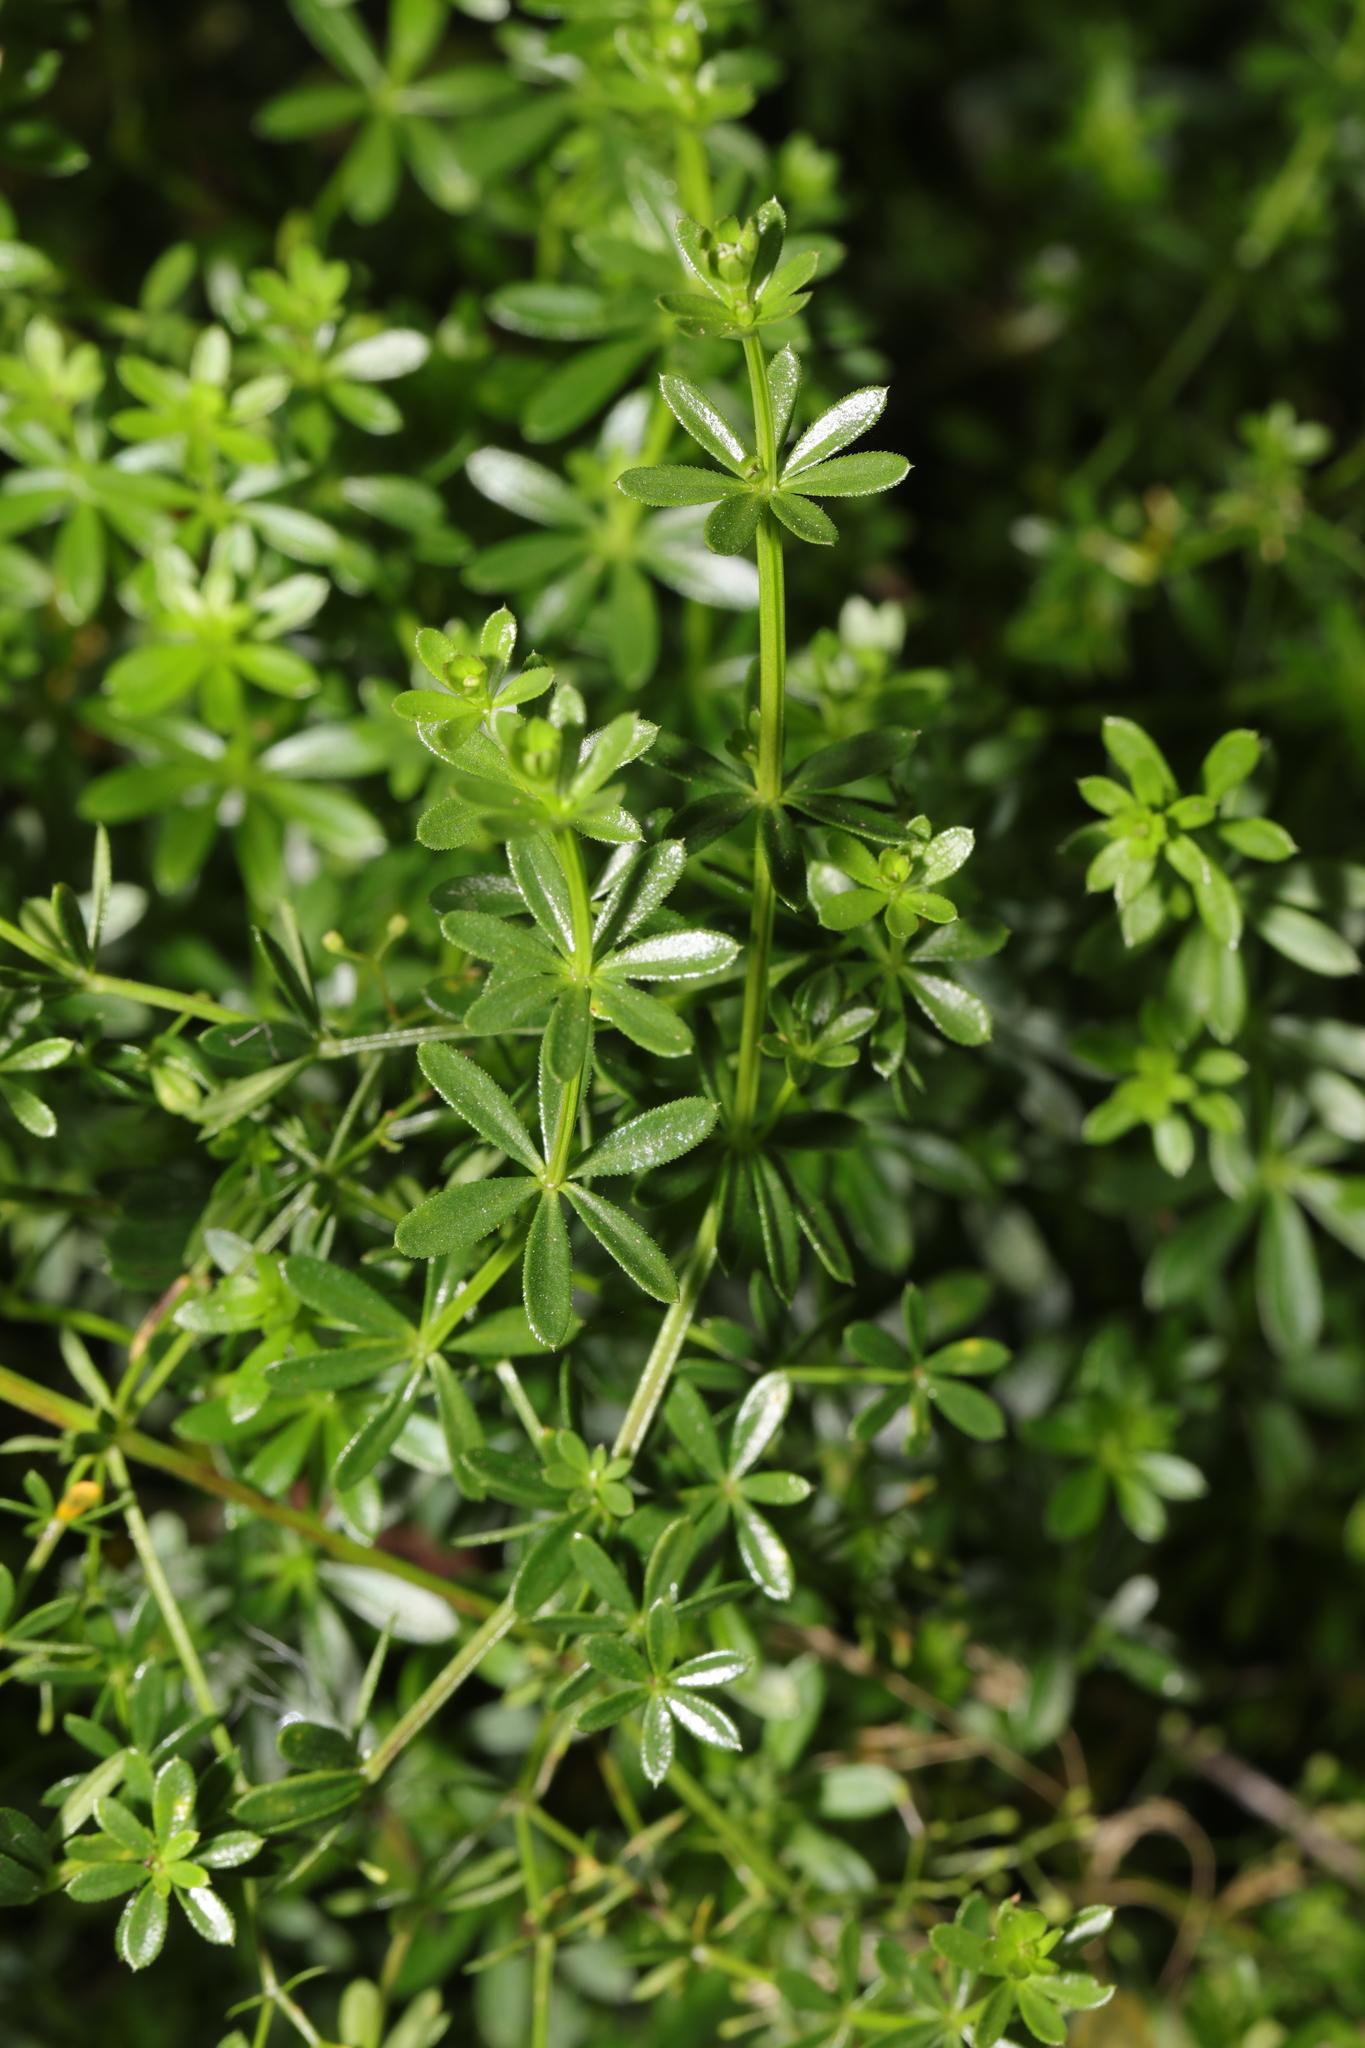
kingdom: Plantae
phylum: Tracheophyta
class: Magnoliopsida
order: Gentianales
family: Rubiaceae
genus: Galium
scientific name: Galium mollugo
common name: Hedge bedstraw
